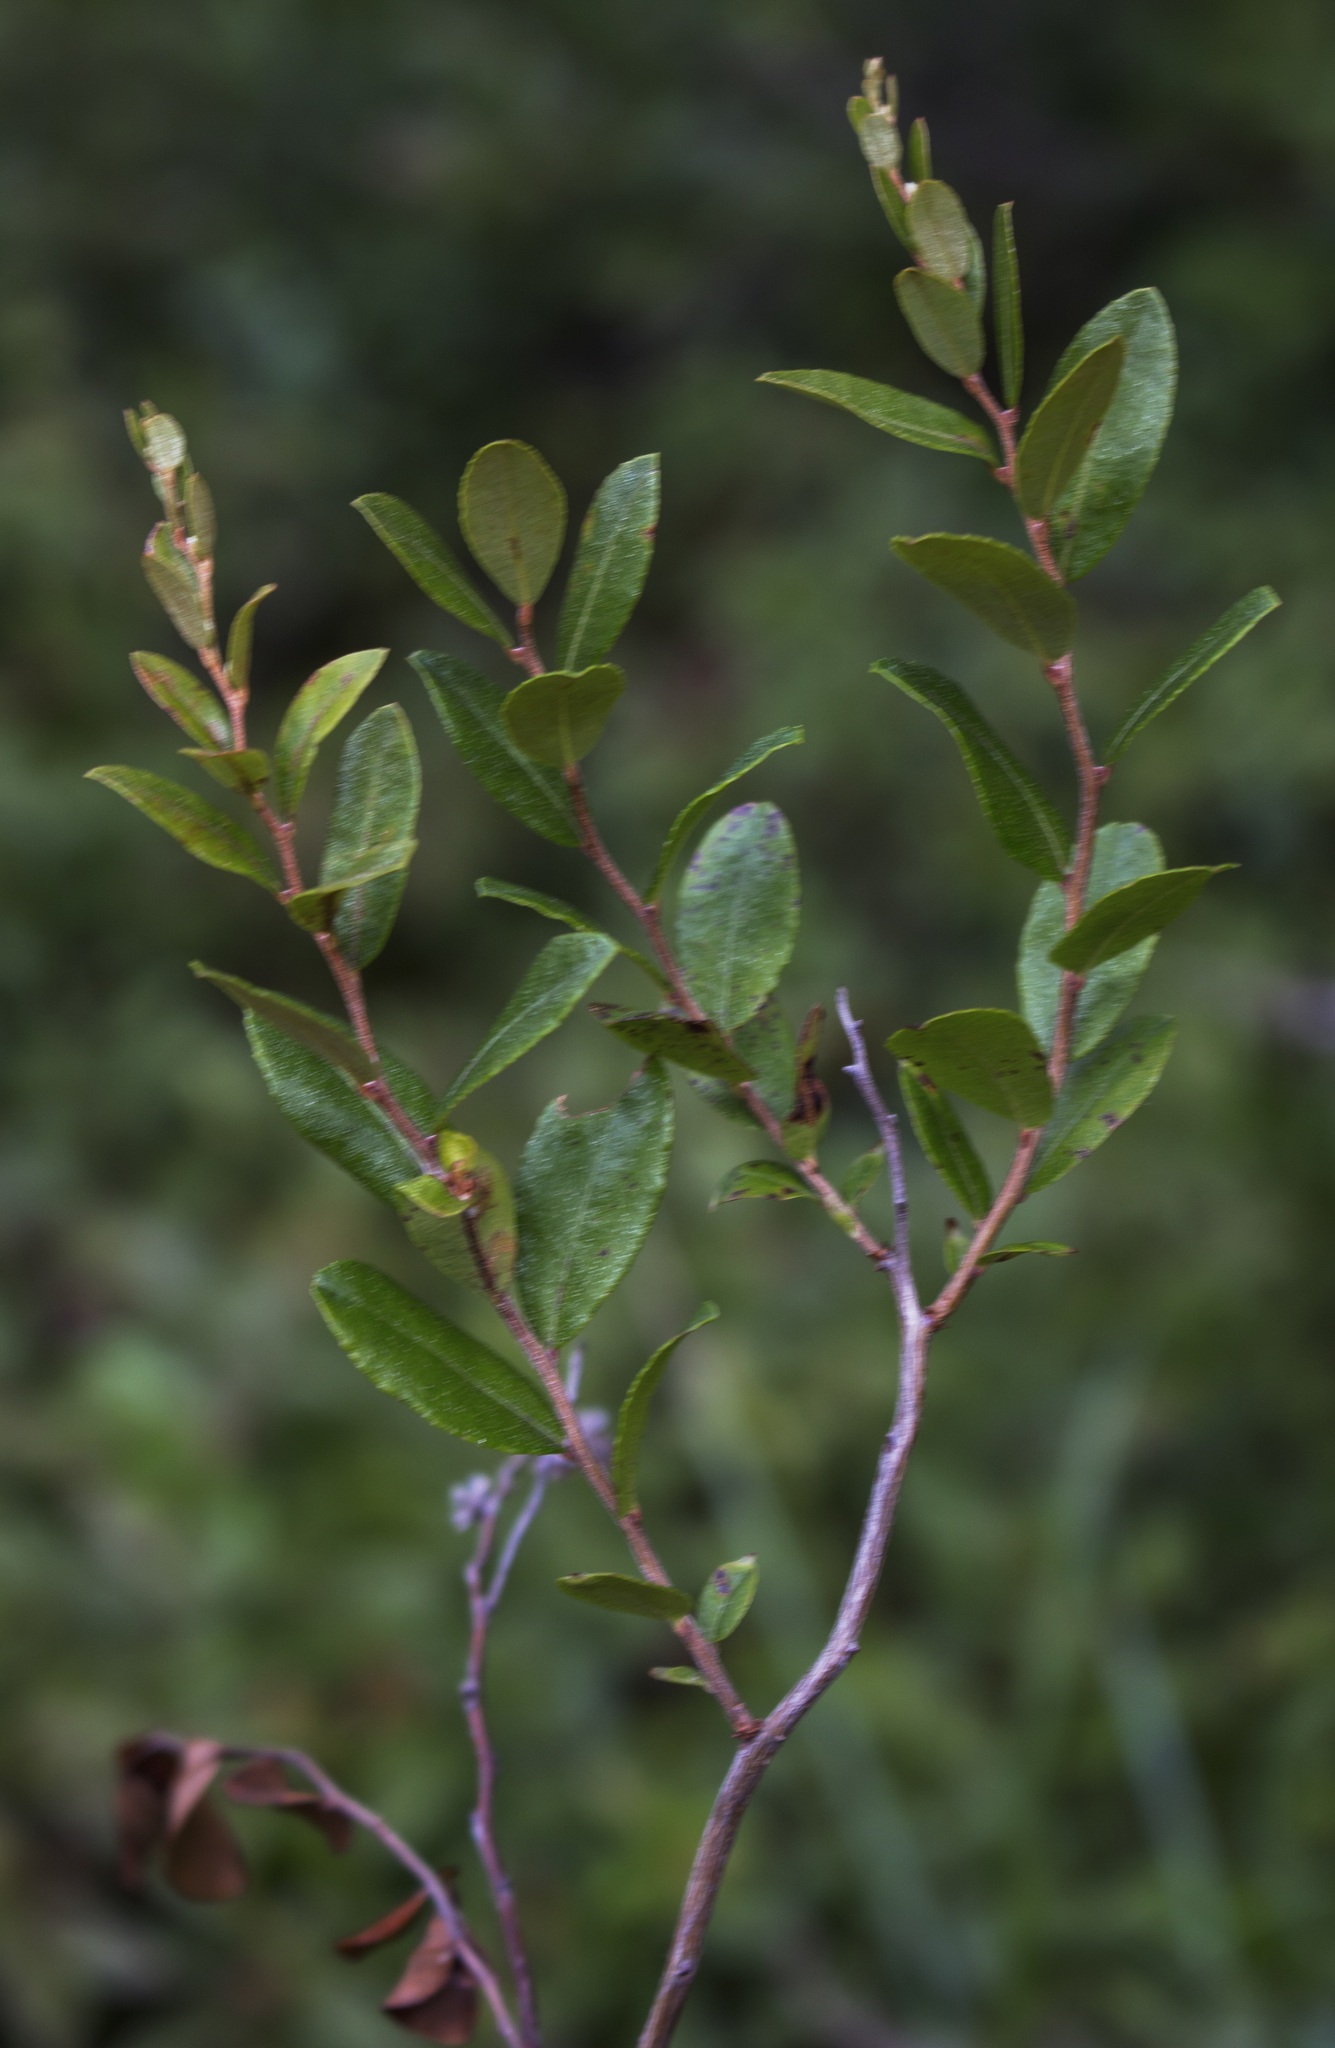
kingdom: Plantae
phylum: Tracheophyta
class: Magnoliopsida
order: Ericales
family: Ericaceae
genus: Chamaedaphne
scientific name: Chamaedaphne calyculata
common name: Leatherleaf
